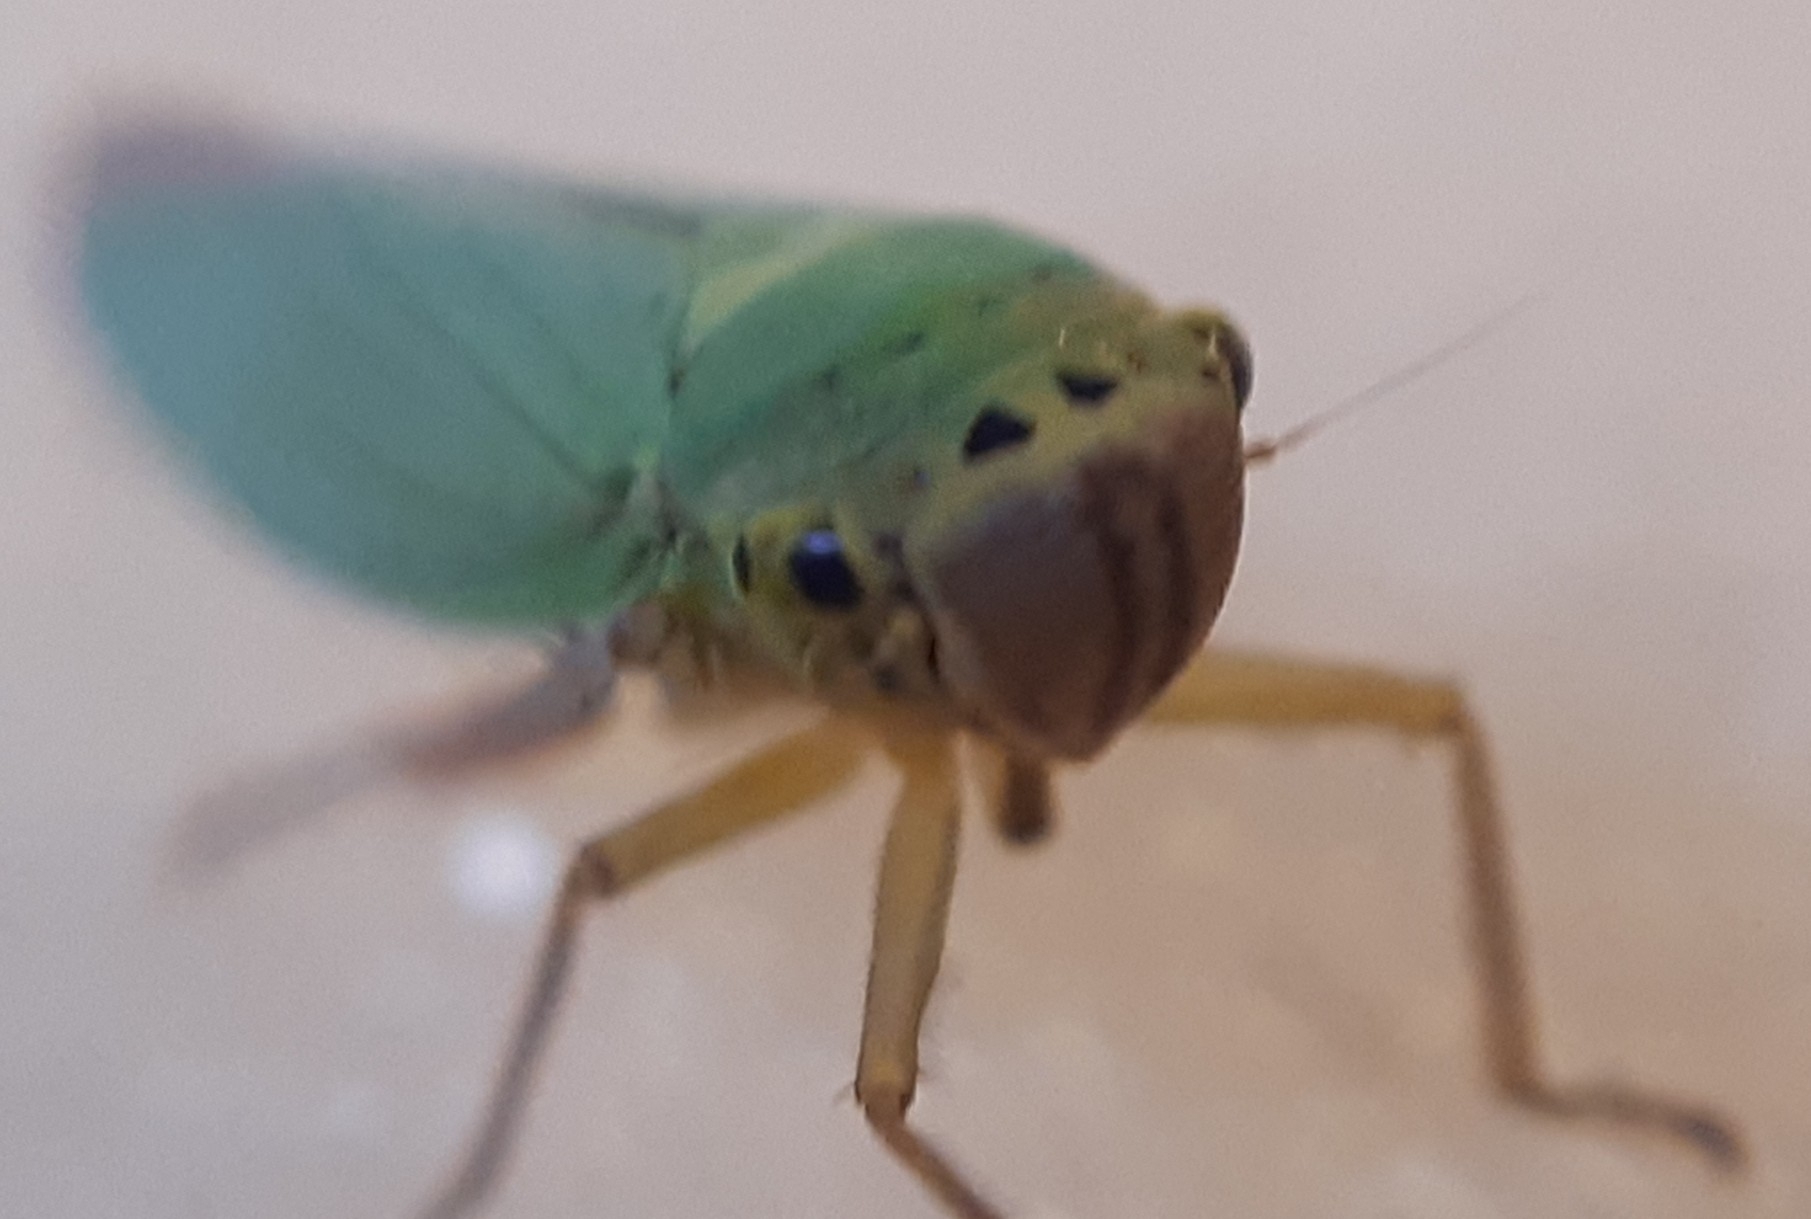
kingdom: Animalia
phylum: Arthropoda
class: Insecta
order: Hemiptera
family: Cicadellidae
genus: Cicadella
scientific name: Cicadella viridis
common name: Leafhopper
